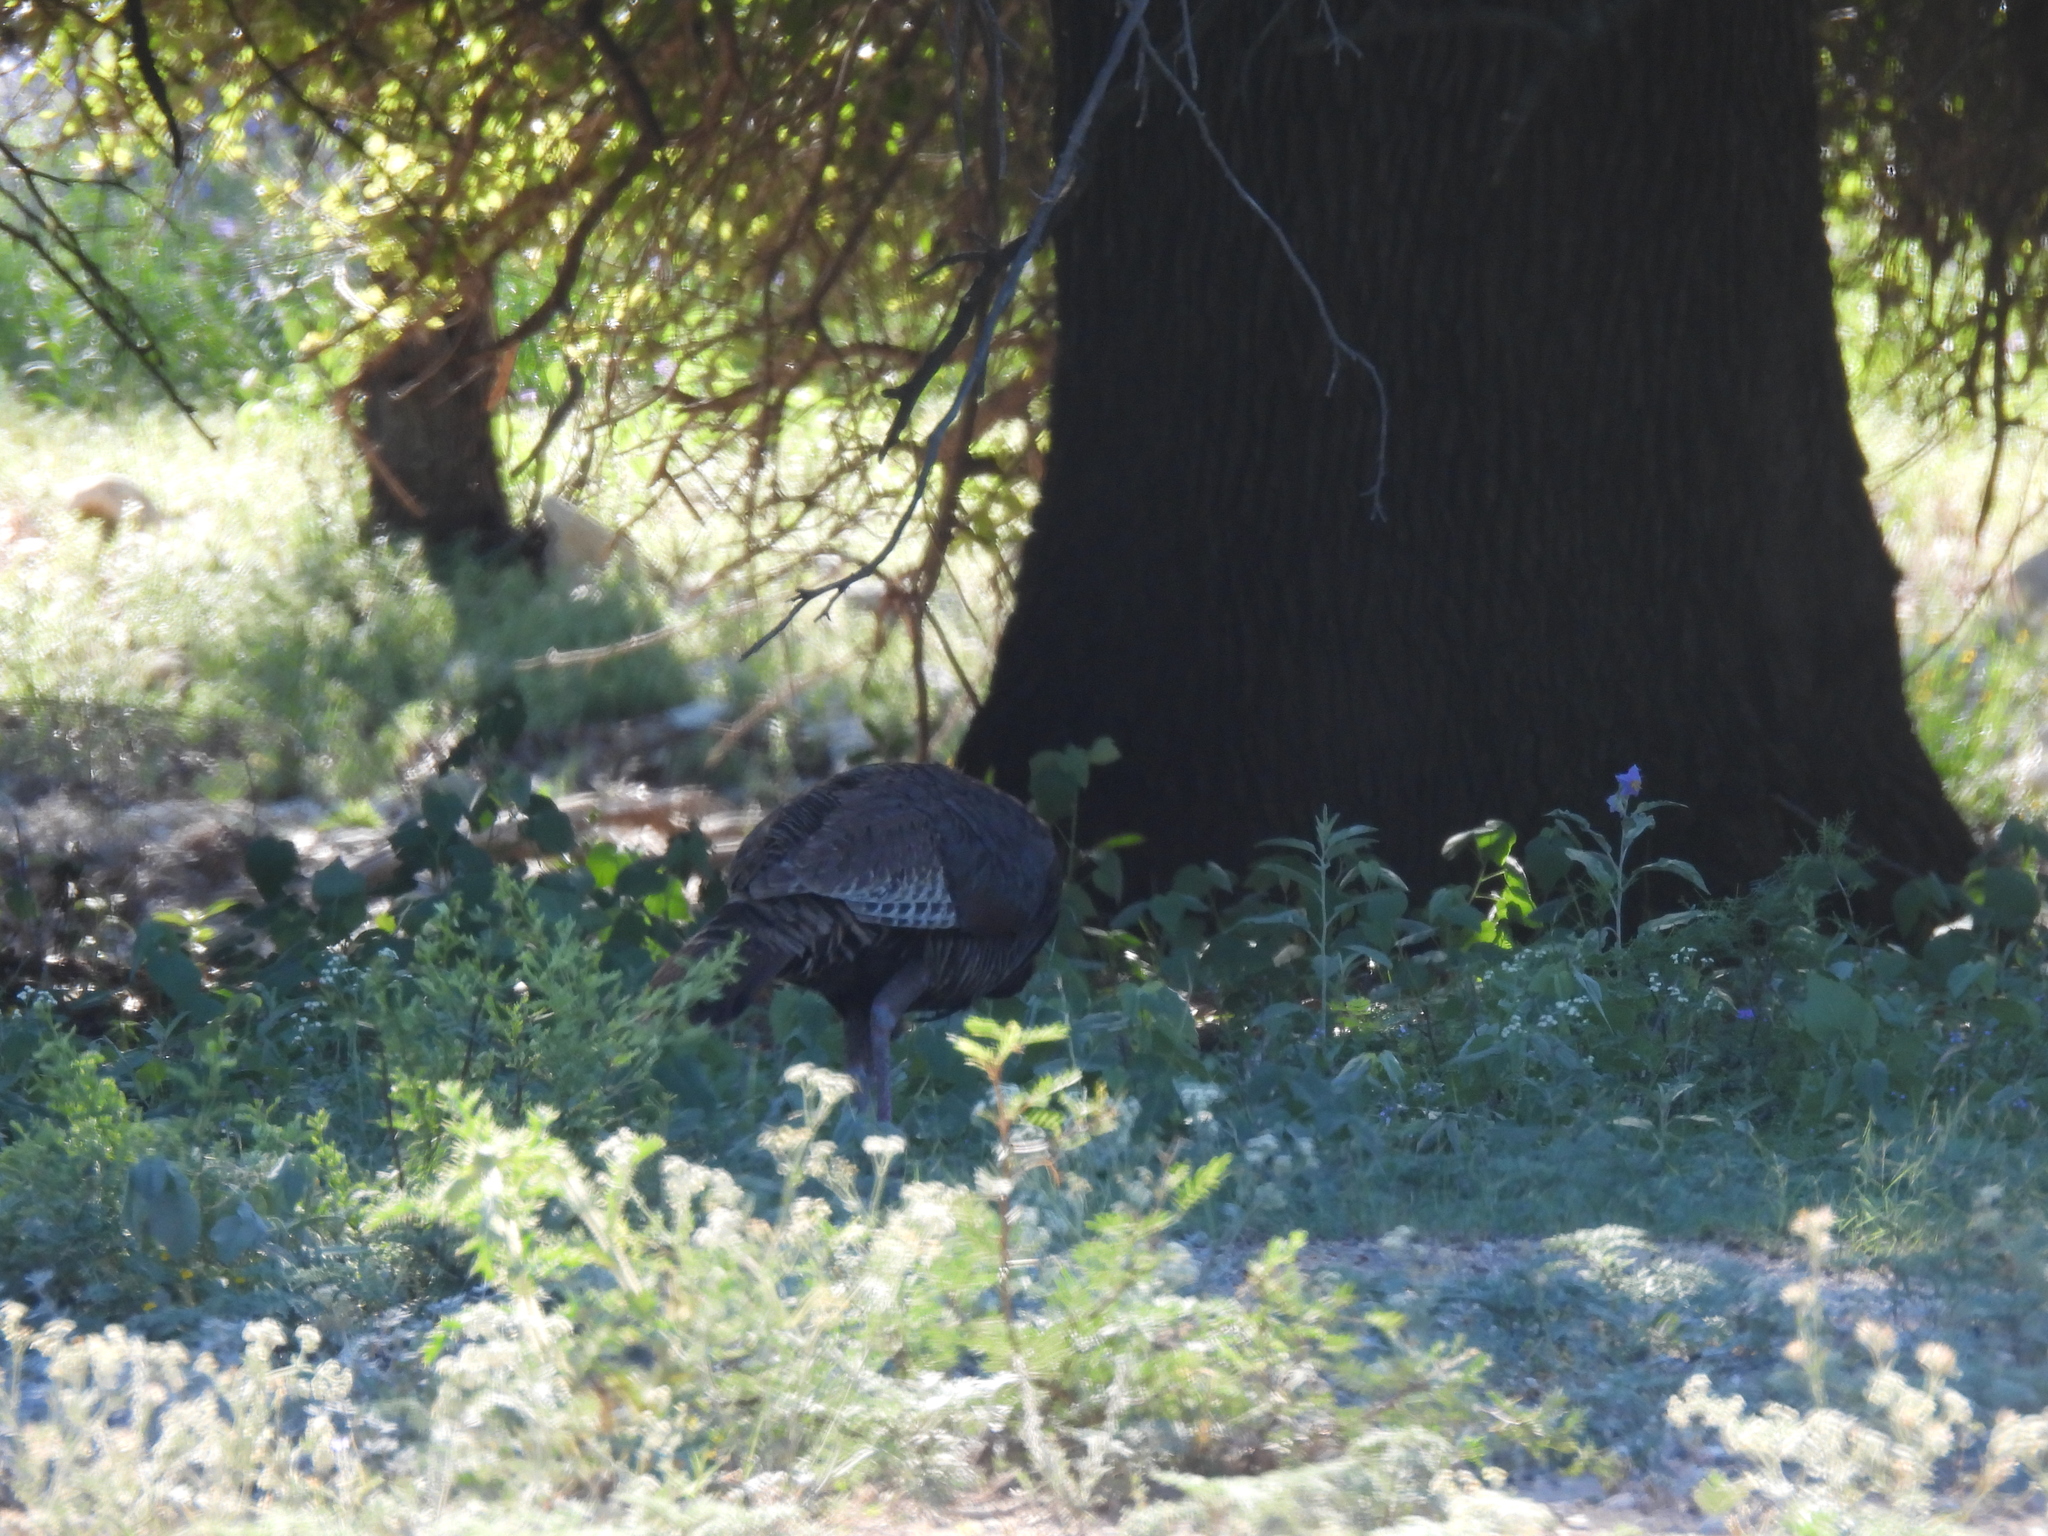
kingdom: Animalia
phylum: Chordata
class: Aves
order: Galliformes
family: Phasianidae
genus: Meleagris
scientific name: Meleagris gallopavo
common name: Wild turkey
